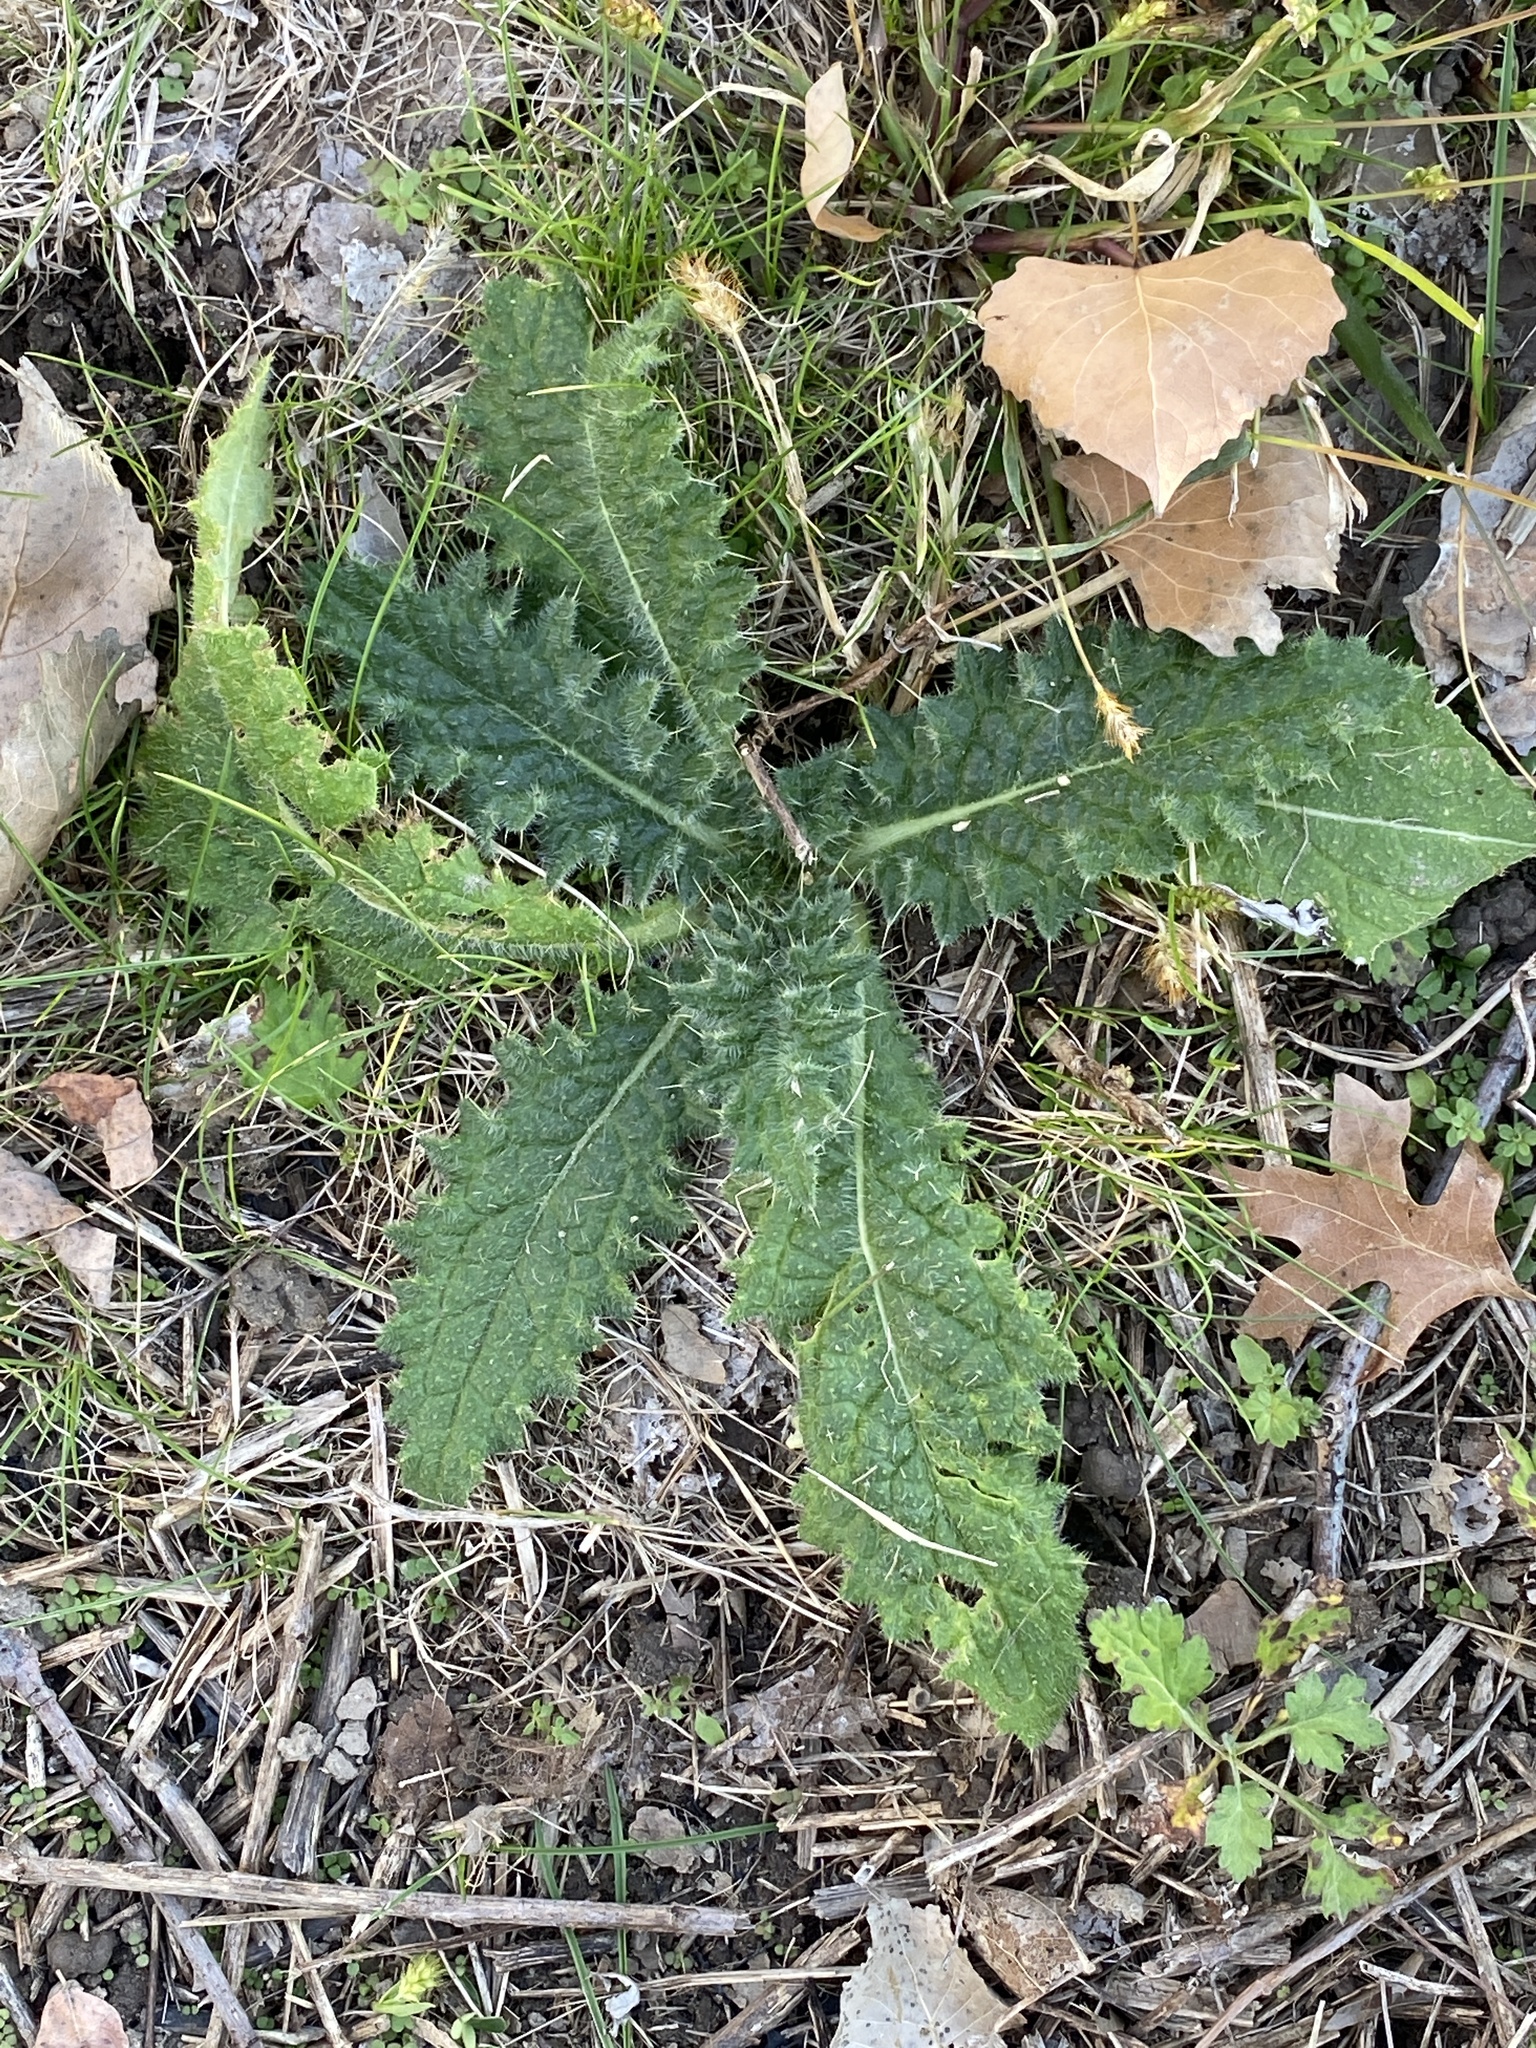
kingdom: Plantae
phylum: Tracheophyta
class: Magnoliopsida
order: Asterales
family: Asteraceae
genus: Cirsium
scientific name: Cirsium vulgare
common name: Bull thistle
